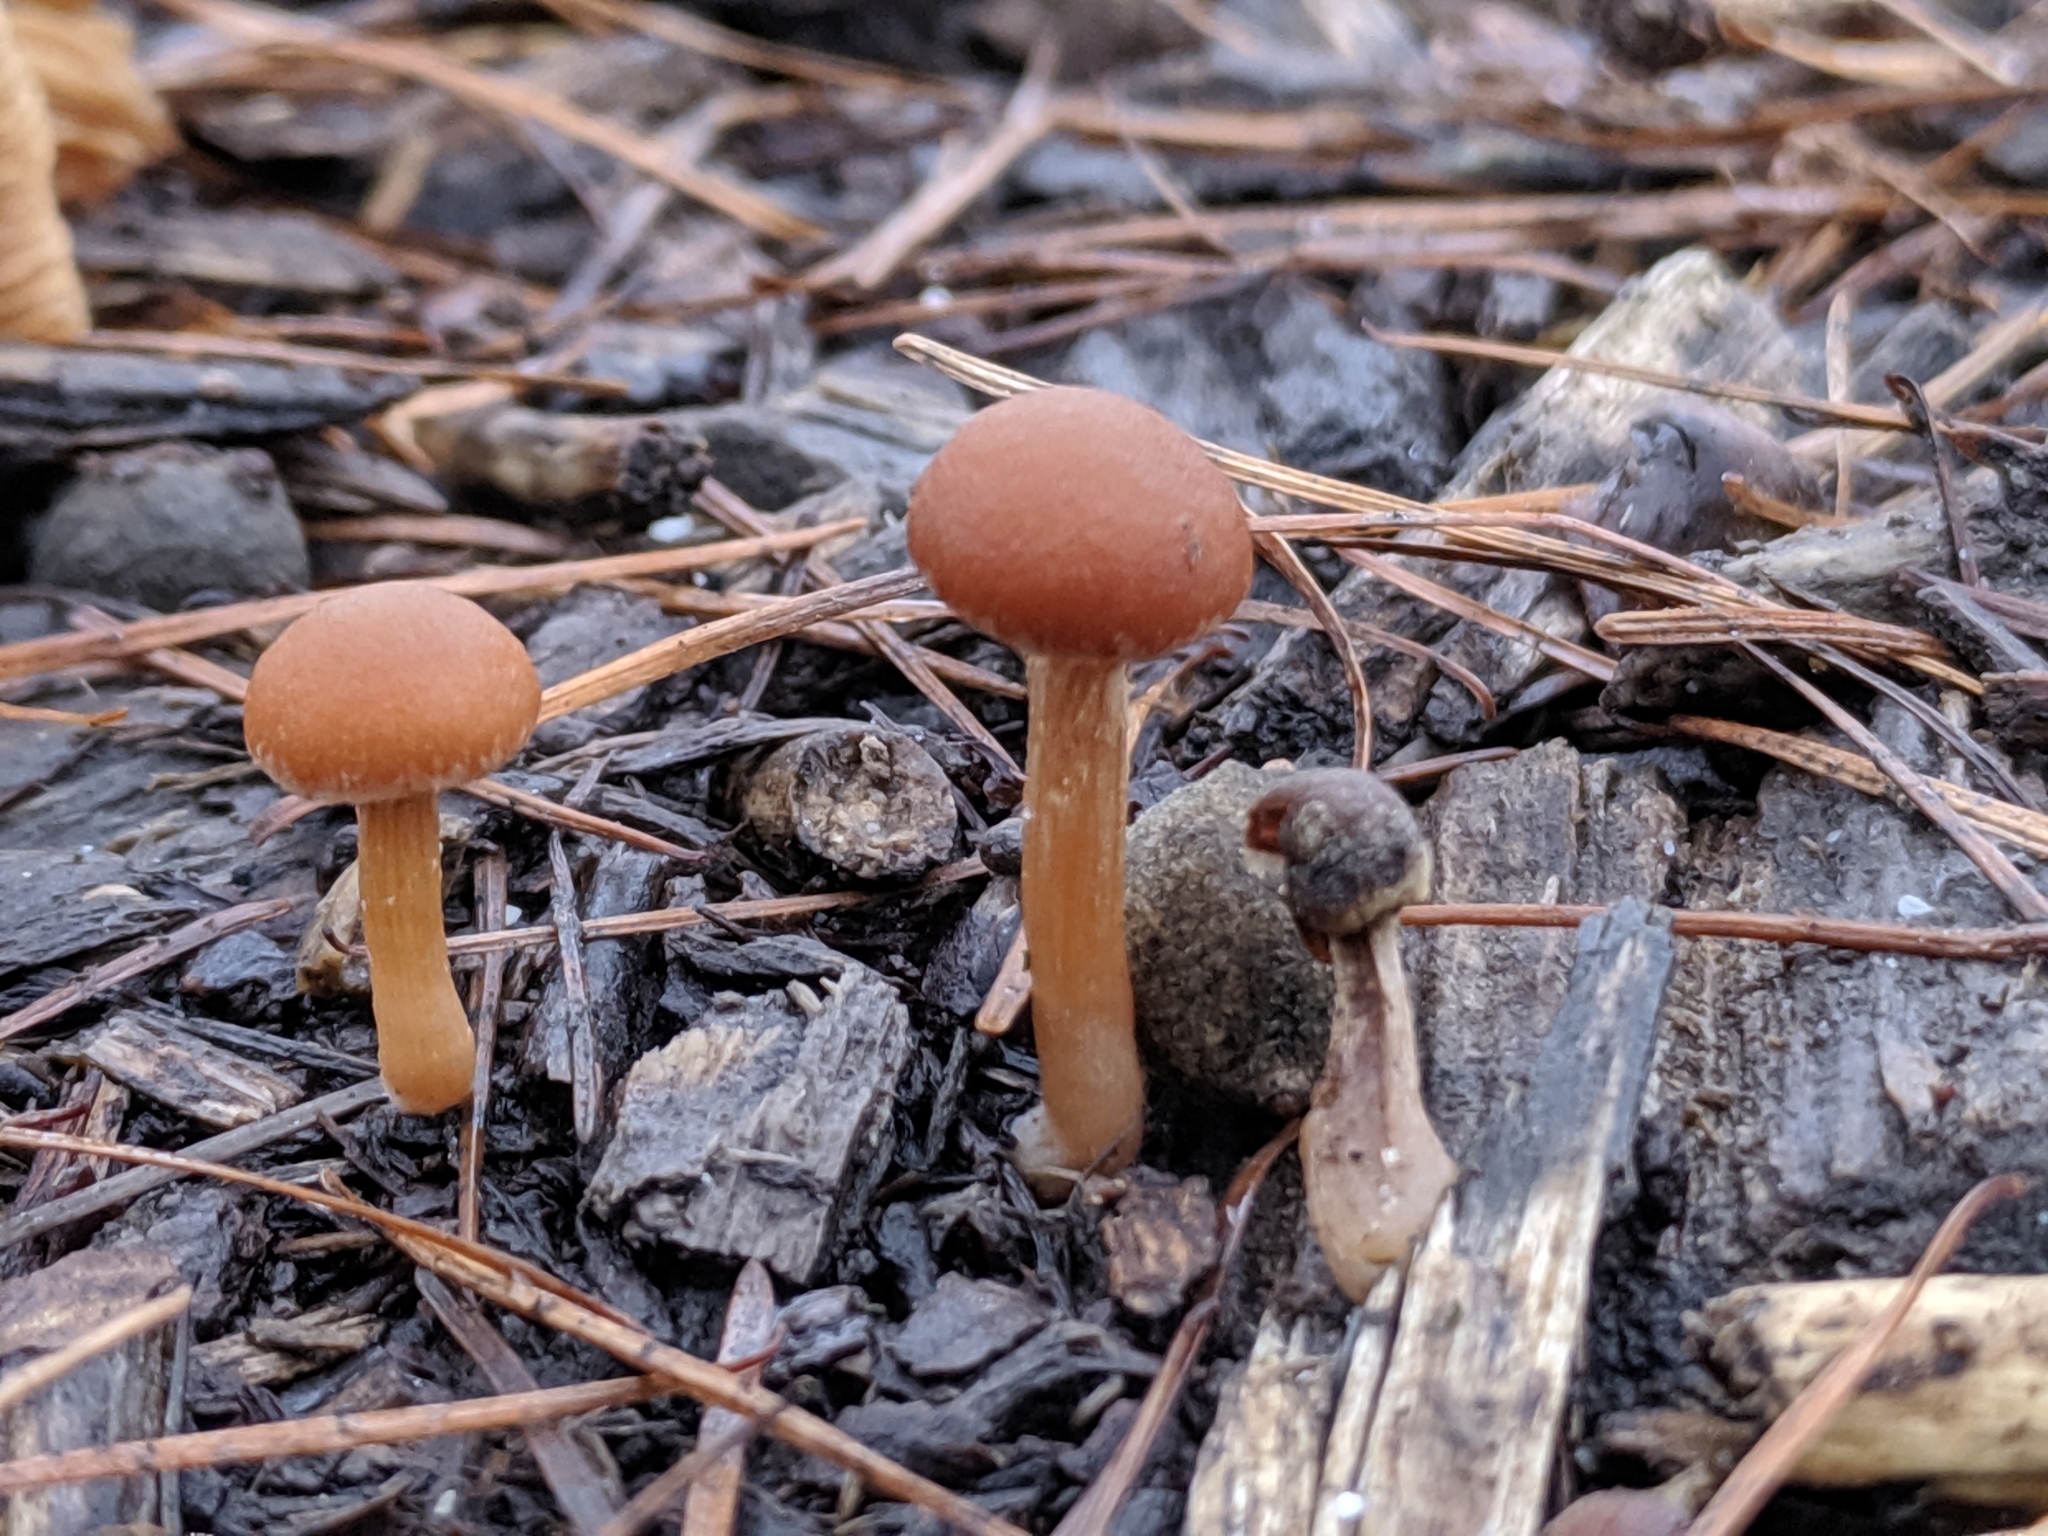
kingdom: Fungi
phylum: Basidiomycota
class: Agaricomycetes
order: Agaricales
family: Tubariaceae
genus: Tubaria
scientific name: Tubaria furfuracea
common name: Scurfy twiglet
